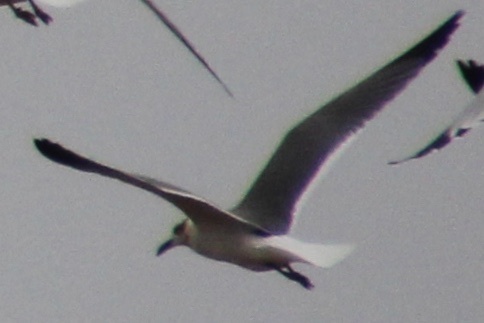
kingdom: Animalia
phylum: Chordata
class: Aves
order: Charadriiformes
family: Laridae
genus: Leucophaeus
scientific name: Leucophaeus atricilla
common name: Laughing gull
